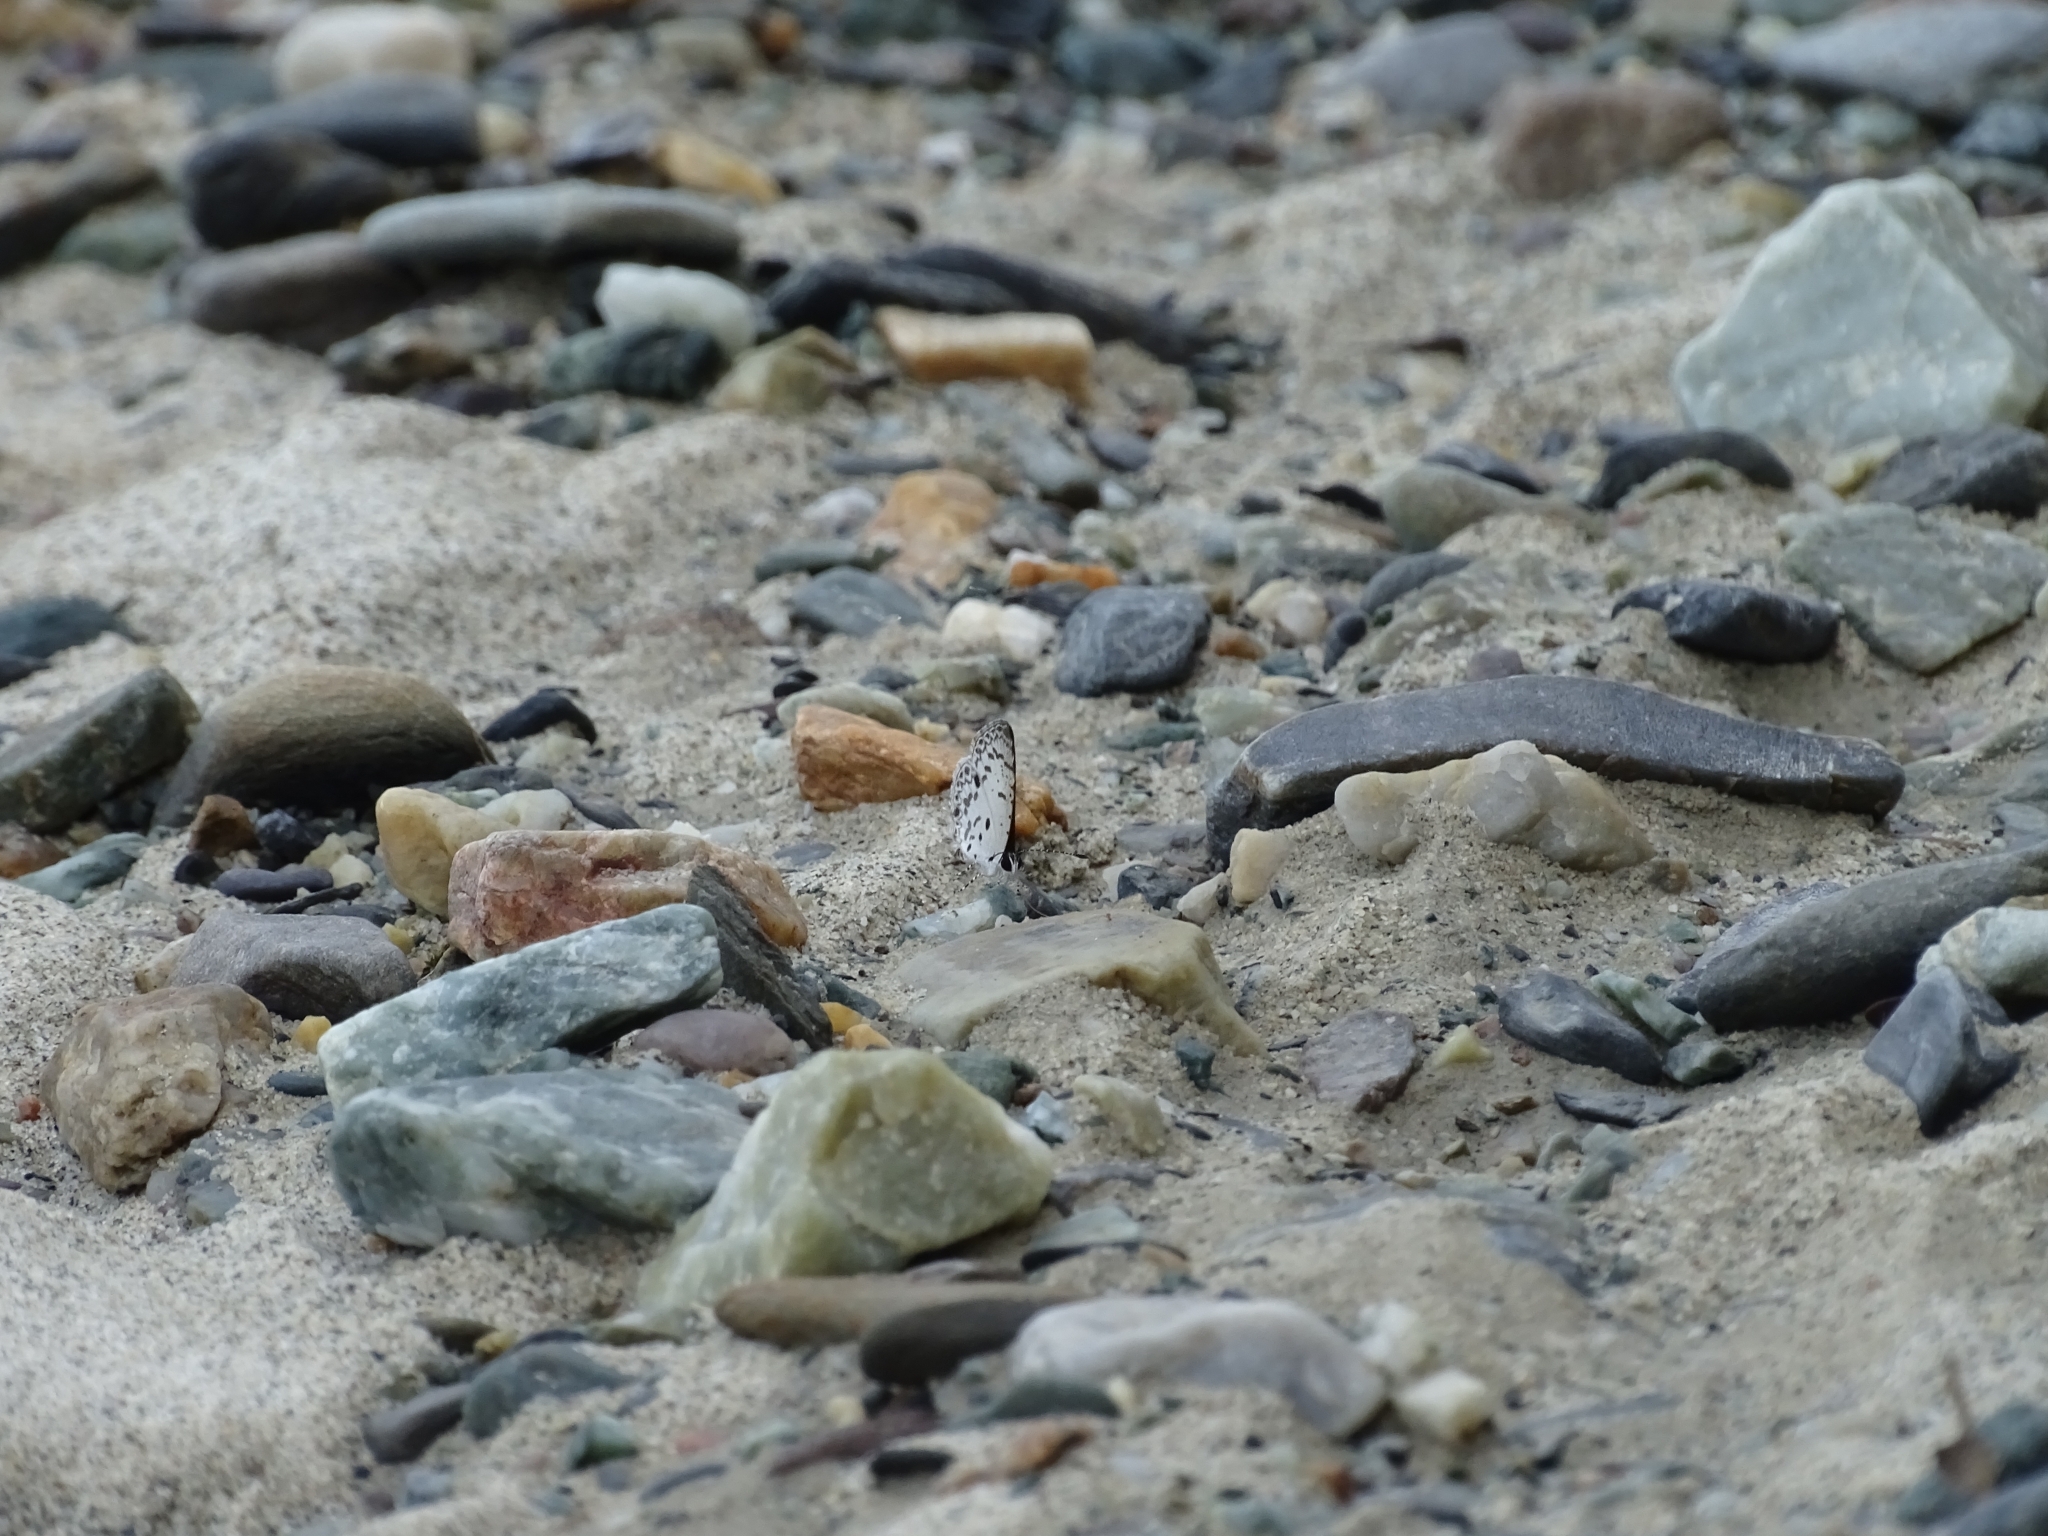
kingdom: Animalia
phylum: Arthropoda
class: Insecta
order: Lepidoptera
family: Lycaenidae
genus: Megisba
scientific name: Megisba malaya
